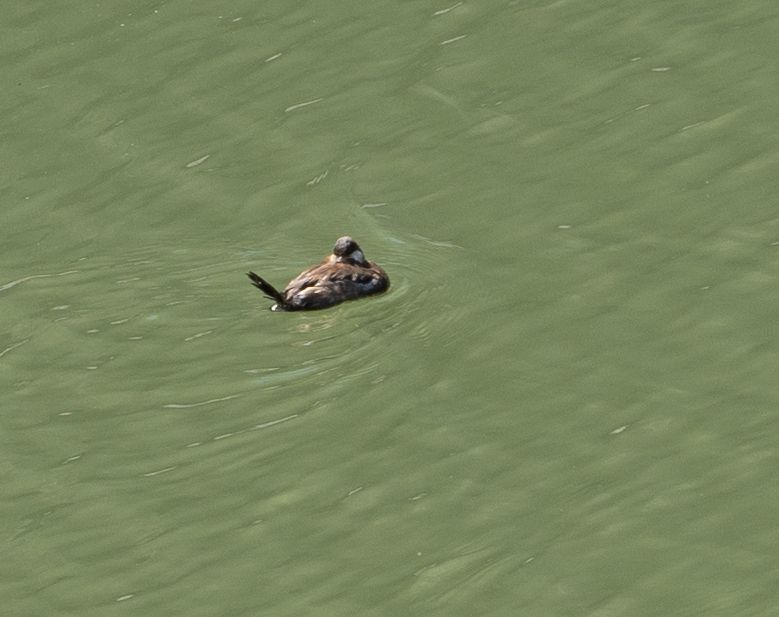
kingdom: Animalia
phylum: Chordata
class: Aves
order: Anseriformes
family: Anatidae
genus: Oxyura
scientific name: Oxyura jamaicensis
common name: Ruddy duck
